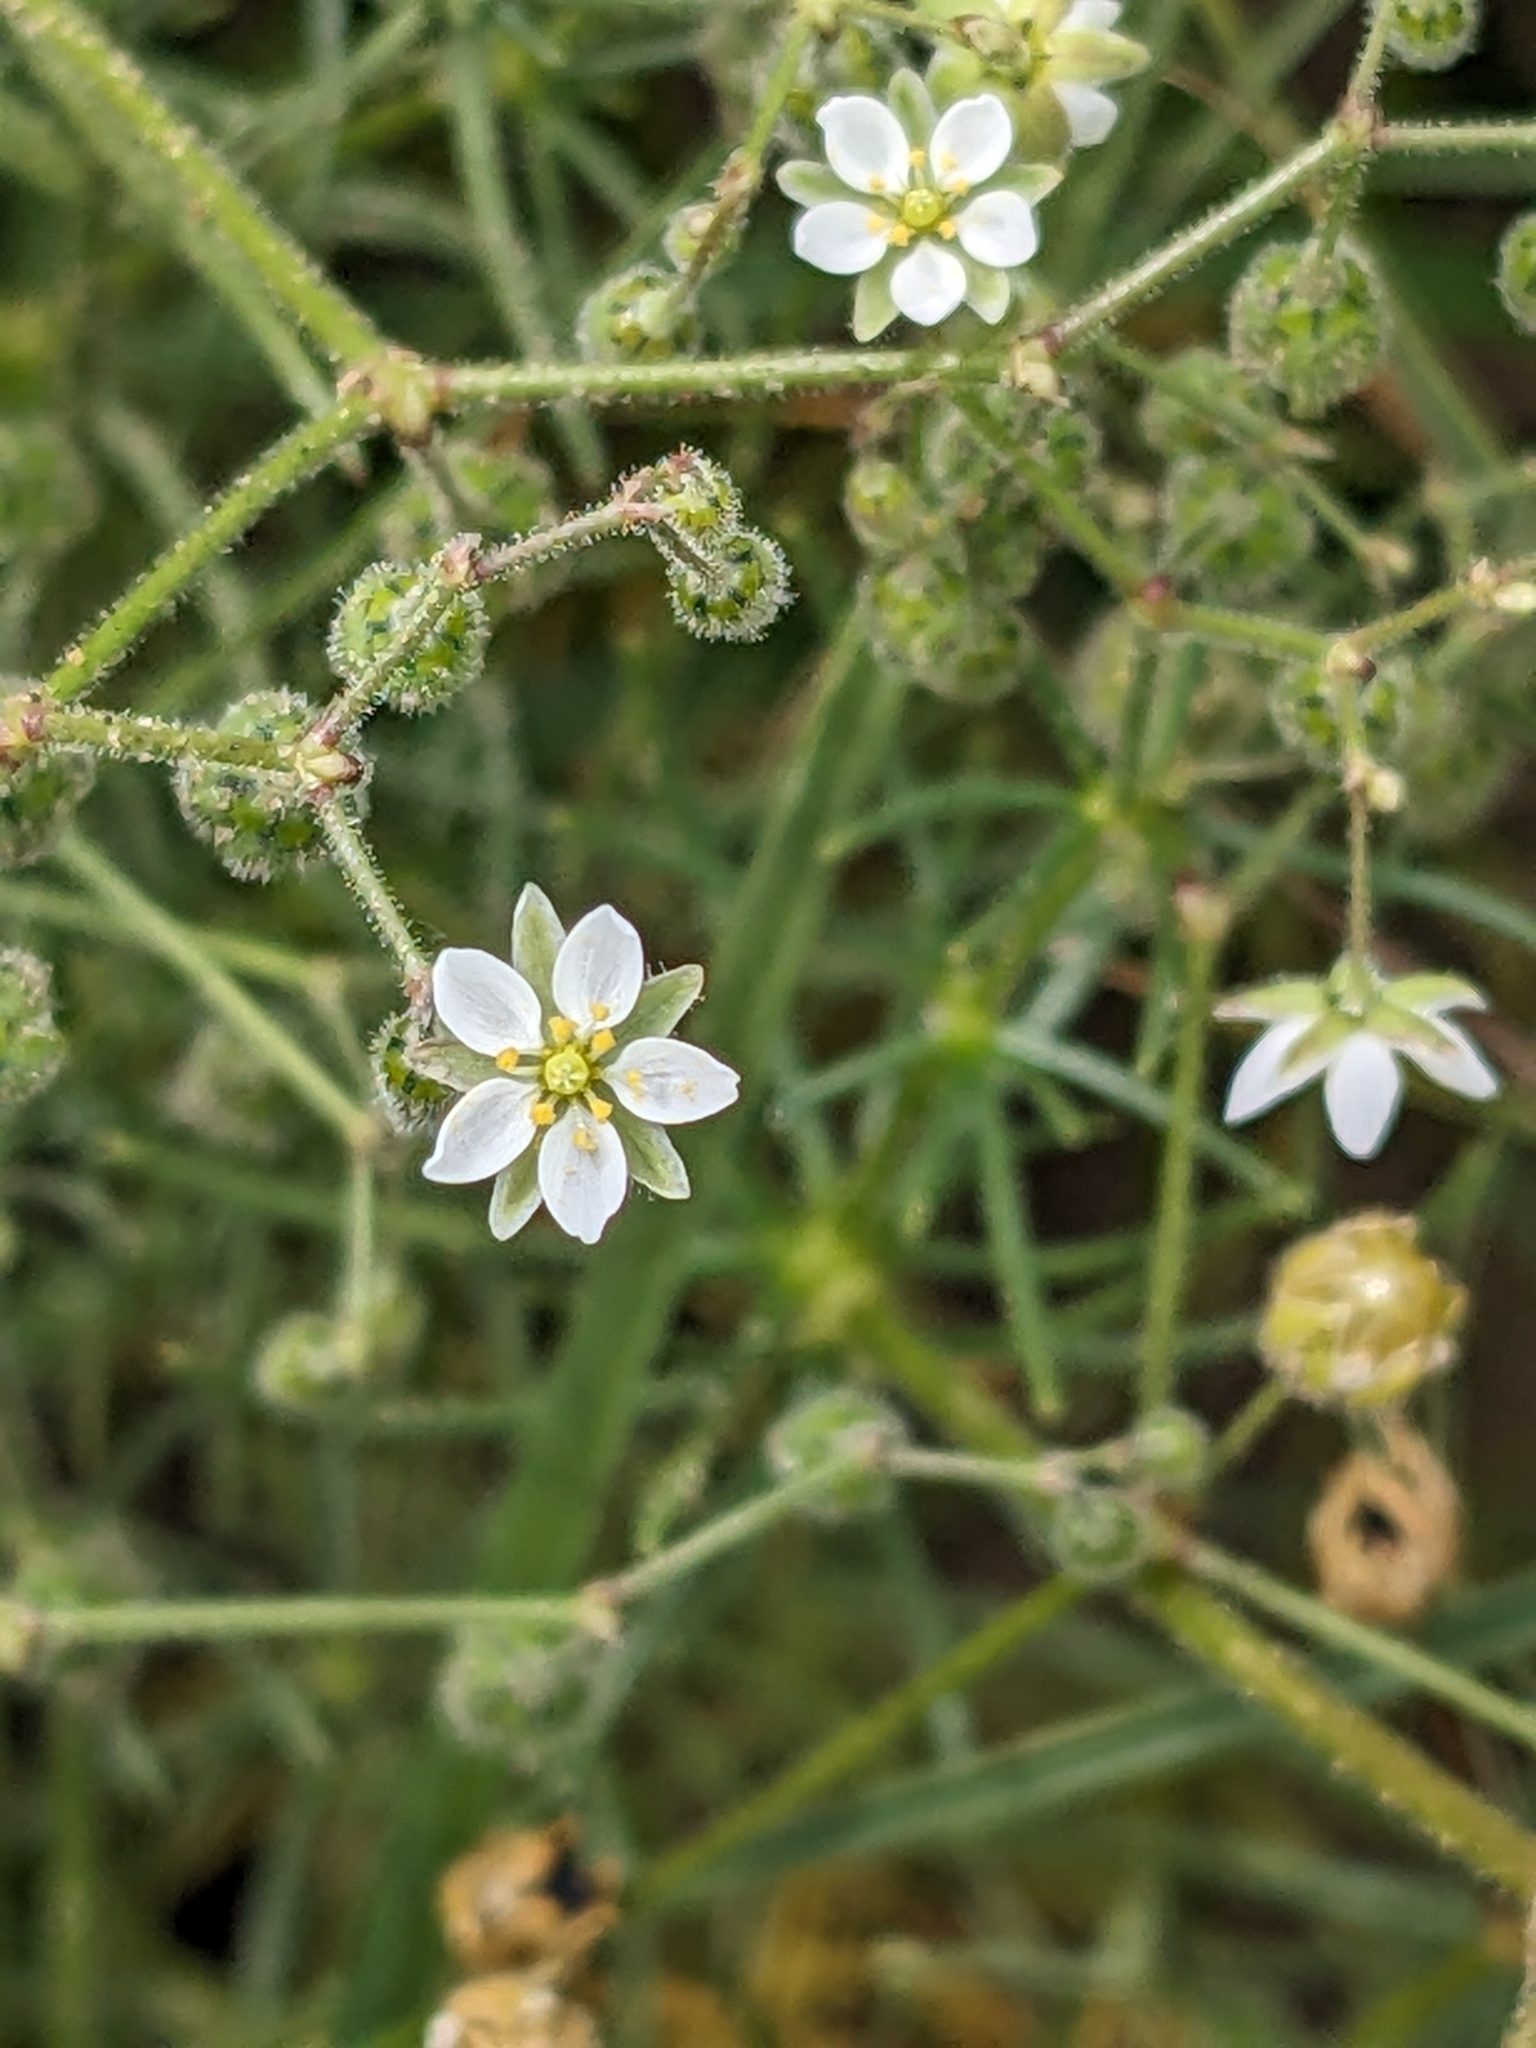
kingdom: Plantae
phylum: Tracheophyta
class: Magnoliopsida
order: Caryophyllales
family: Caryophyllaceae
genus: Spergula
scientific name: Spergula arvensis
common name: Corn spurrey
